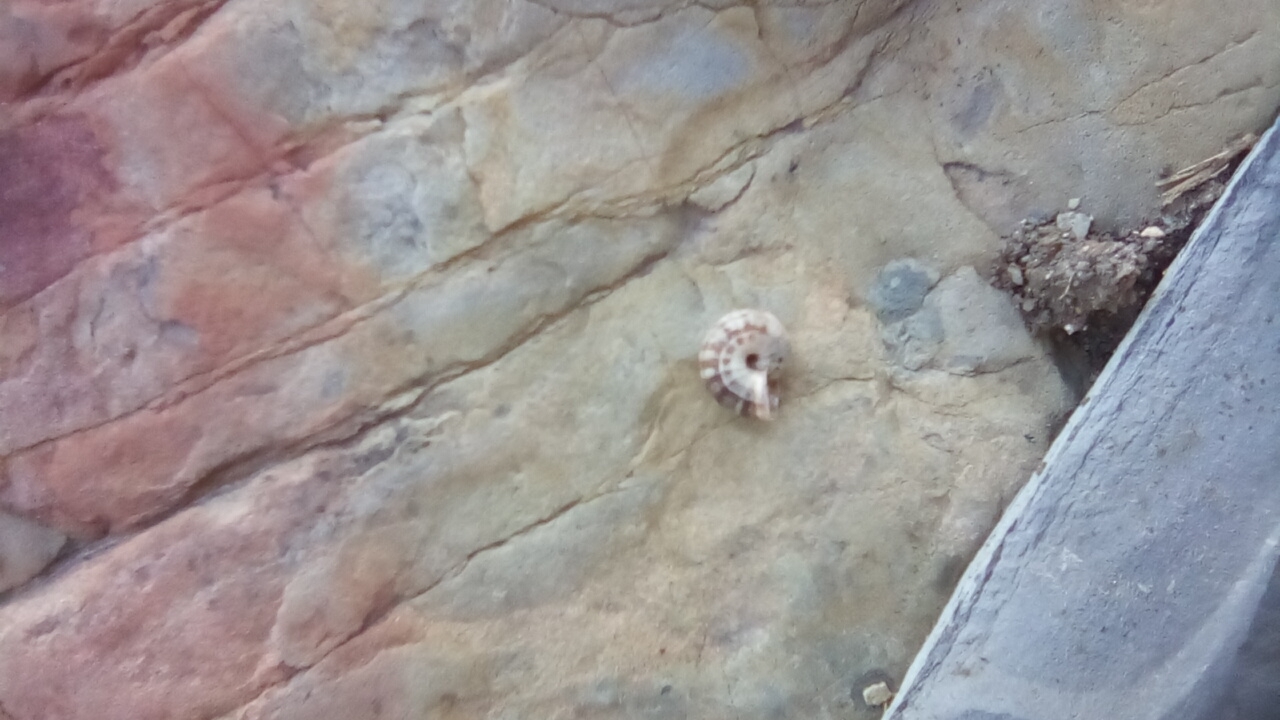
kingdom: Animalia
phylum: Mollusca
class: Gastropoda
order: Stylommatophora
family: Geomitridae
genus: Xeropicta
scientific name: Xeropicta krynickii
